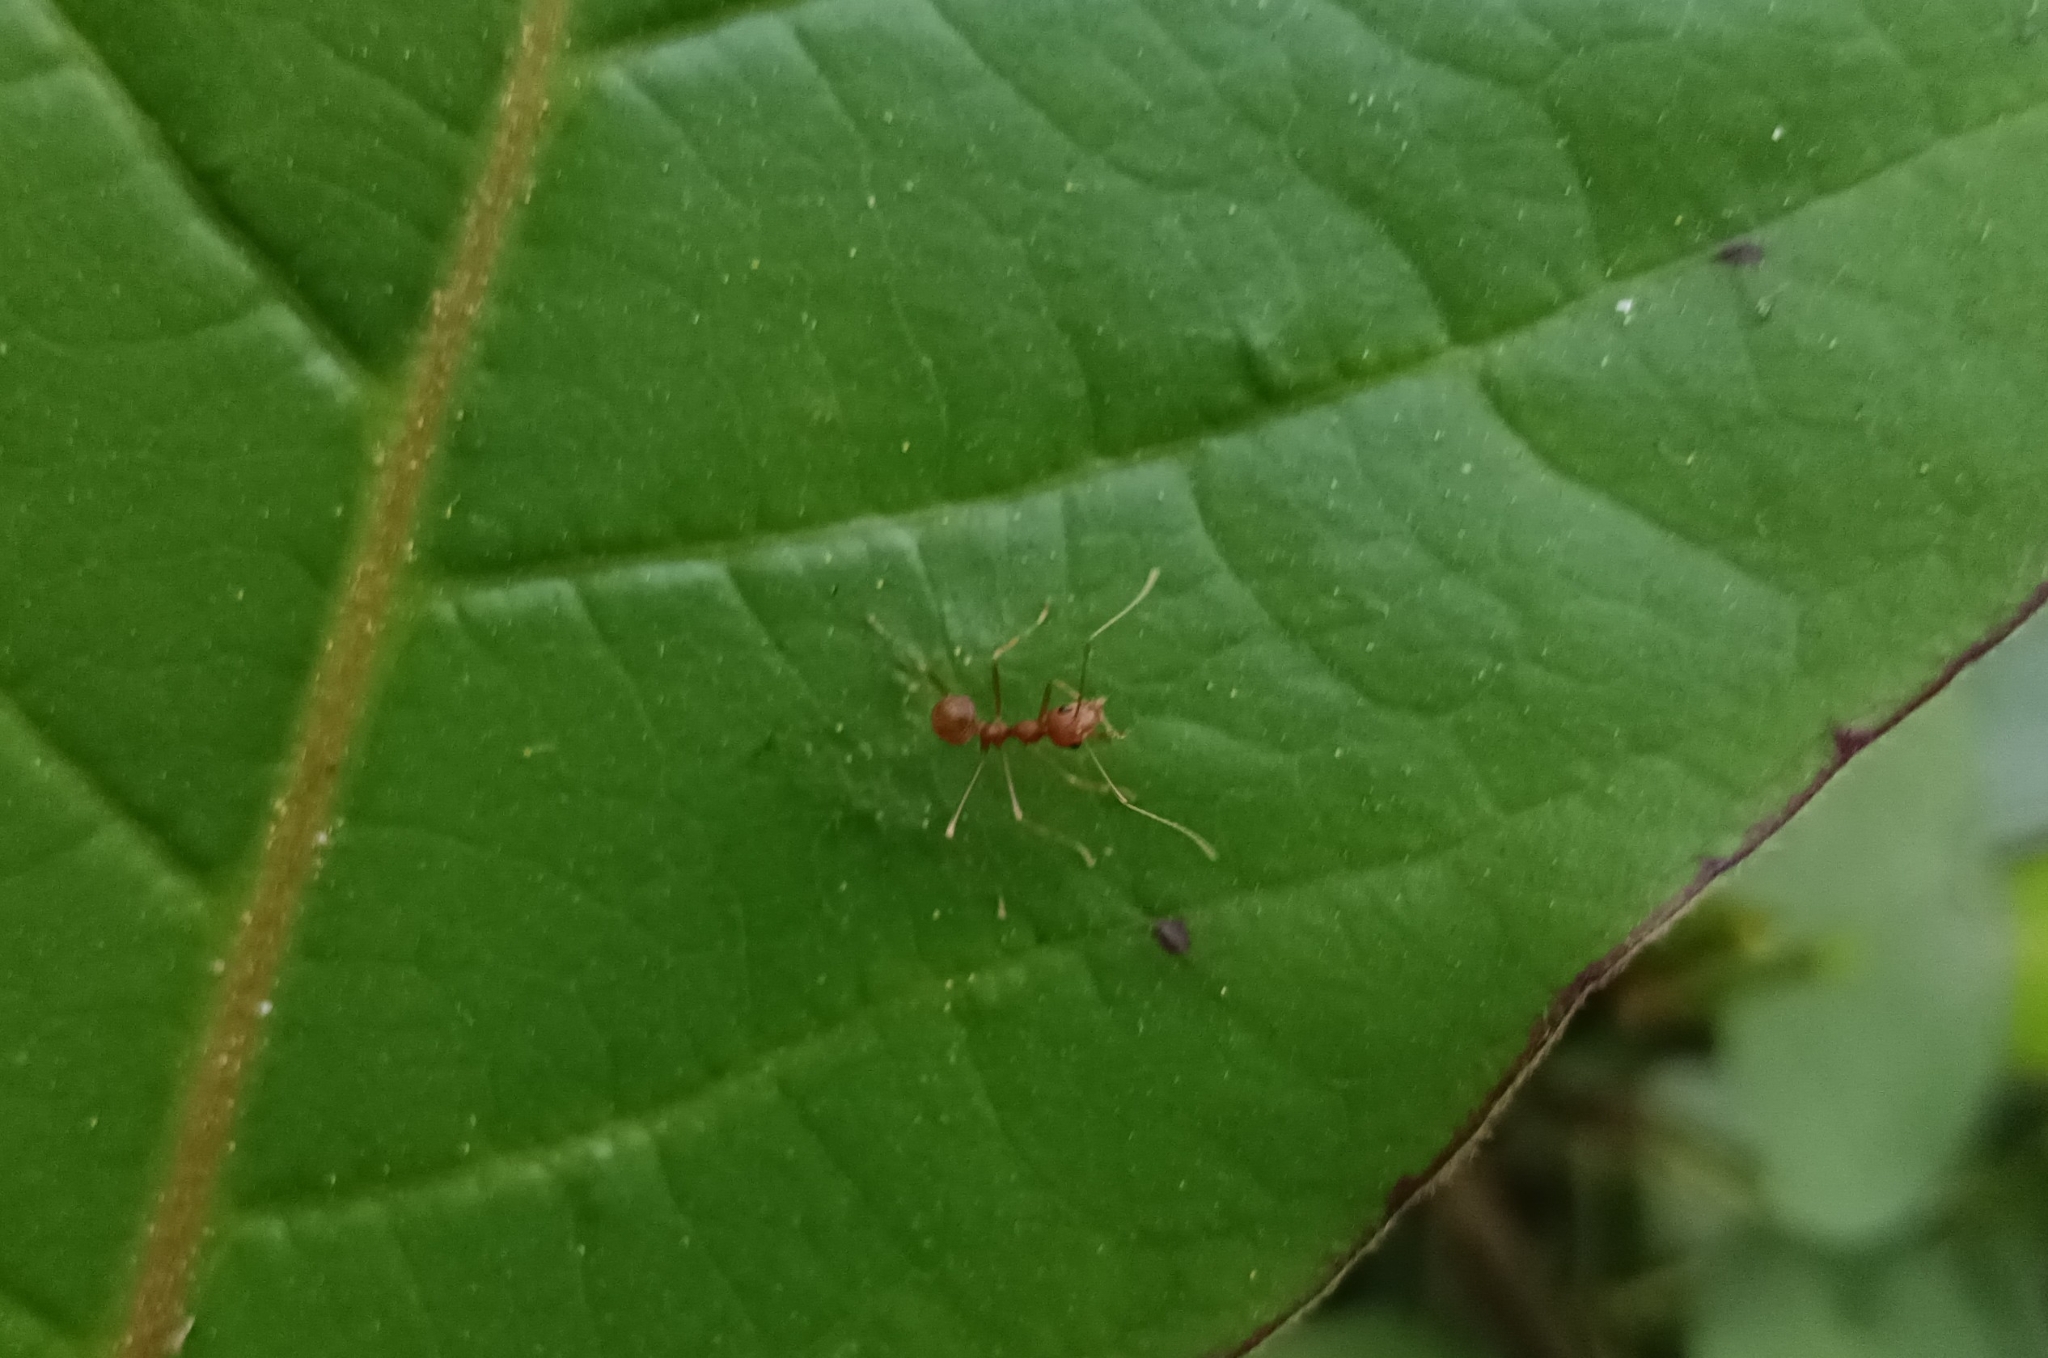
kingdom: Animalia
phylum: Arthropoda
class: Insecta
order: Hymenoptera
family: Formicidae
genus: Oecophylla
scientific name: Oecophylla smaragdina
